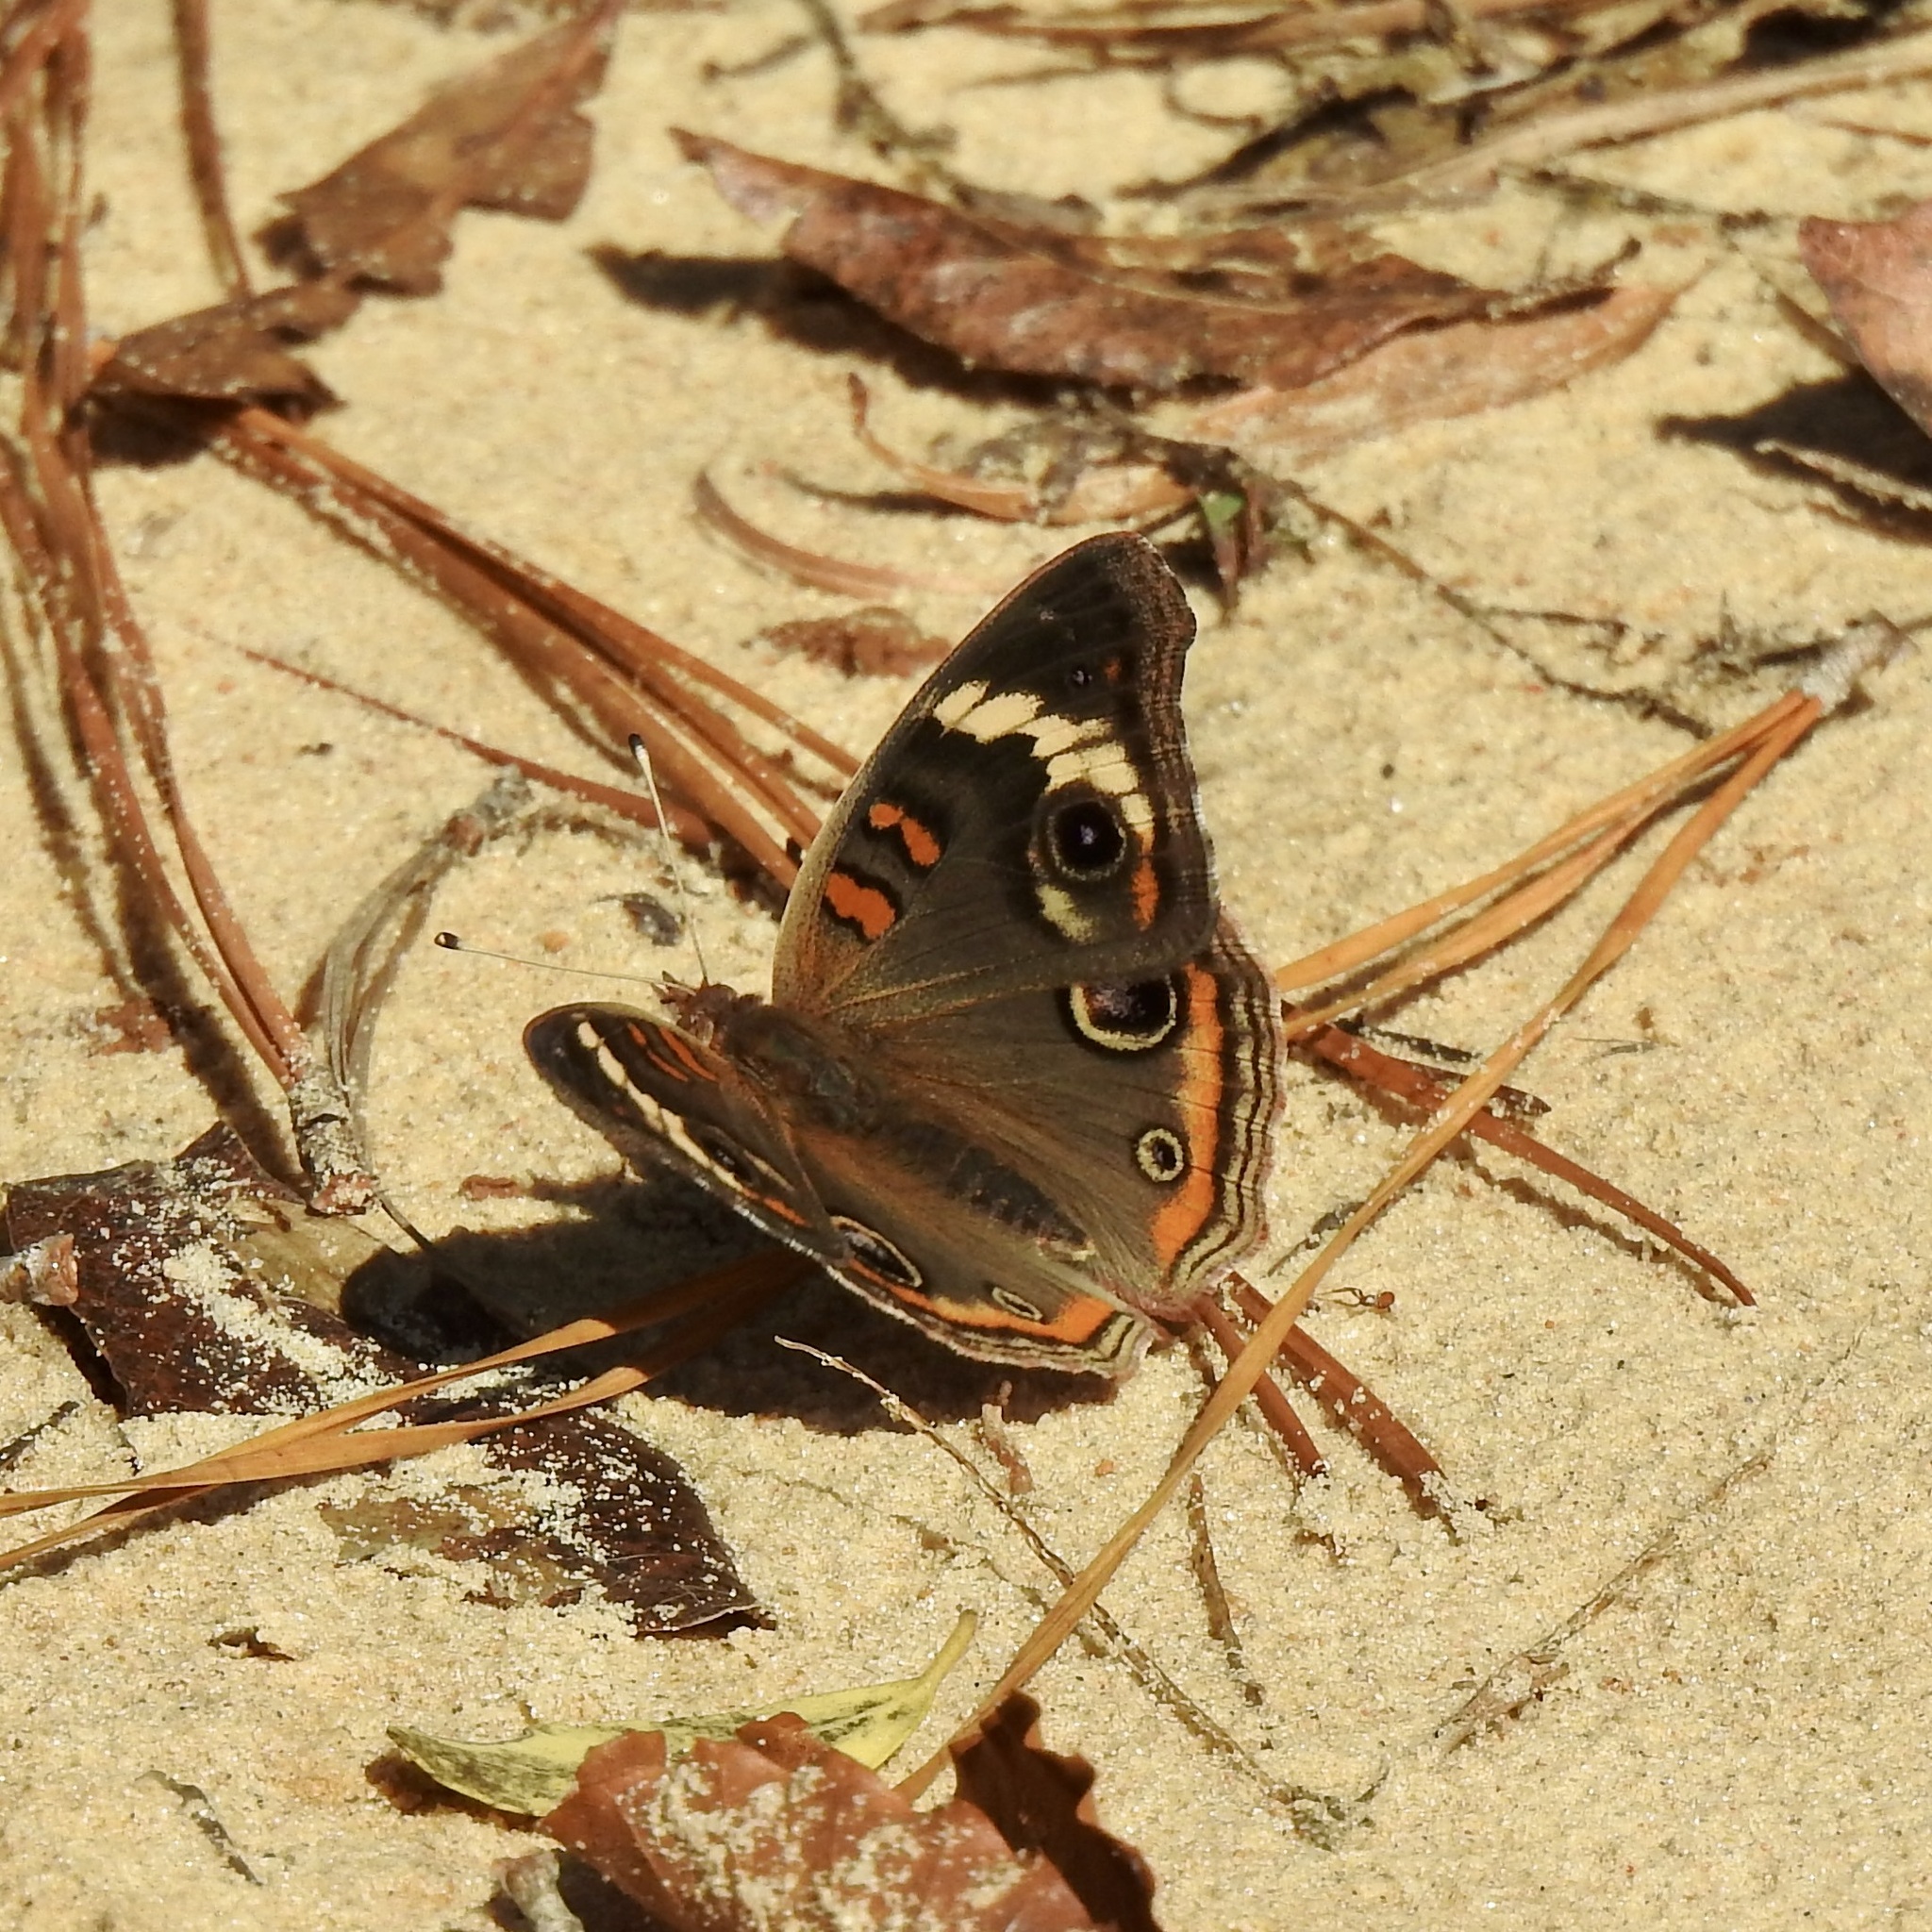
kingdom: Animalia
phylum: Arthropoda
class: Insecta
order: Lepidoptera
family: Nymphalidae
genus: Junonia
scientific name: Junonia coenia
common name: Common buckeye
